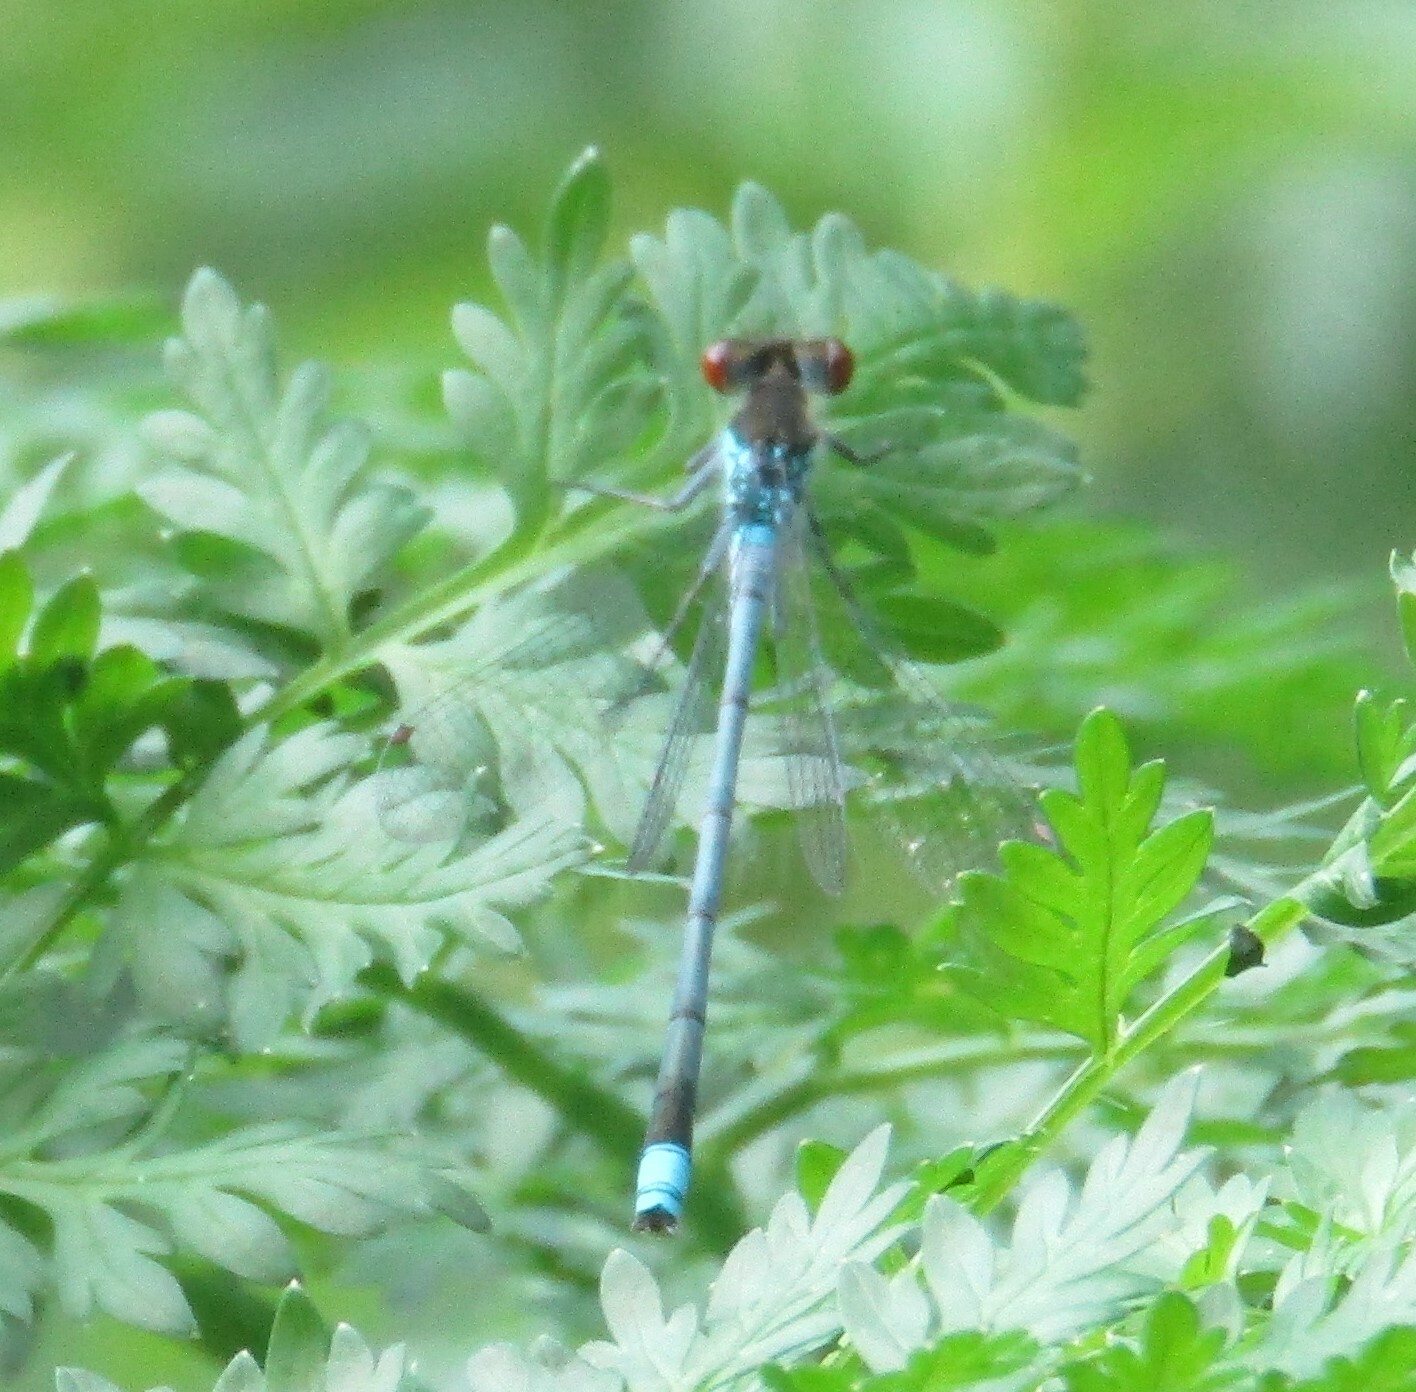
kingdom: Animalia
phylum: Arthropoda
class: Insecta
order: Odonata
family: Coenagrionidae
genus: Erythromma
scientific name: Erythromma najas
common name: Red-eyed damselfly
